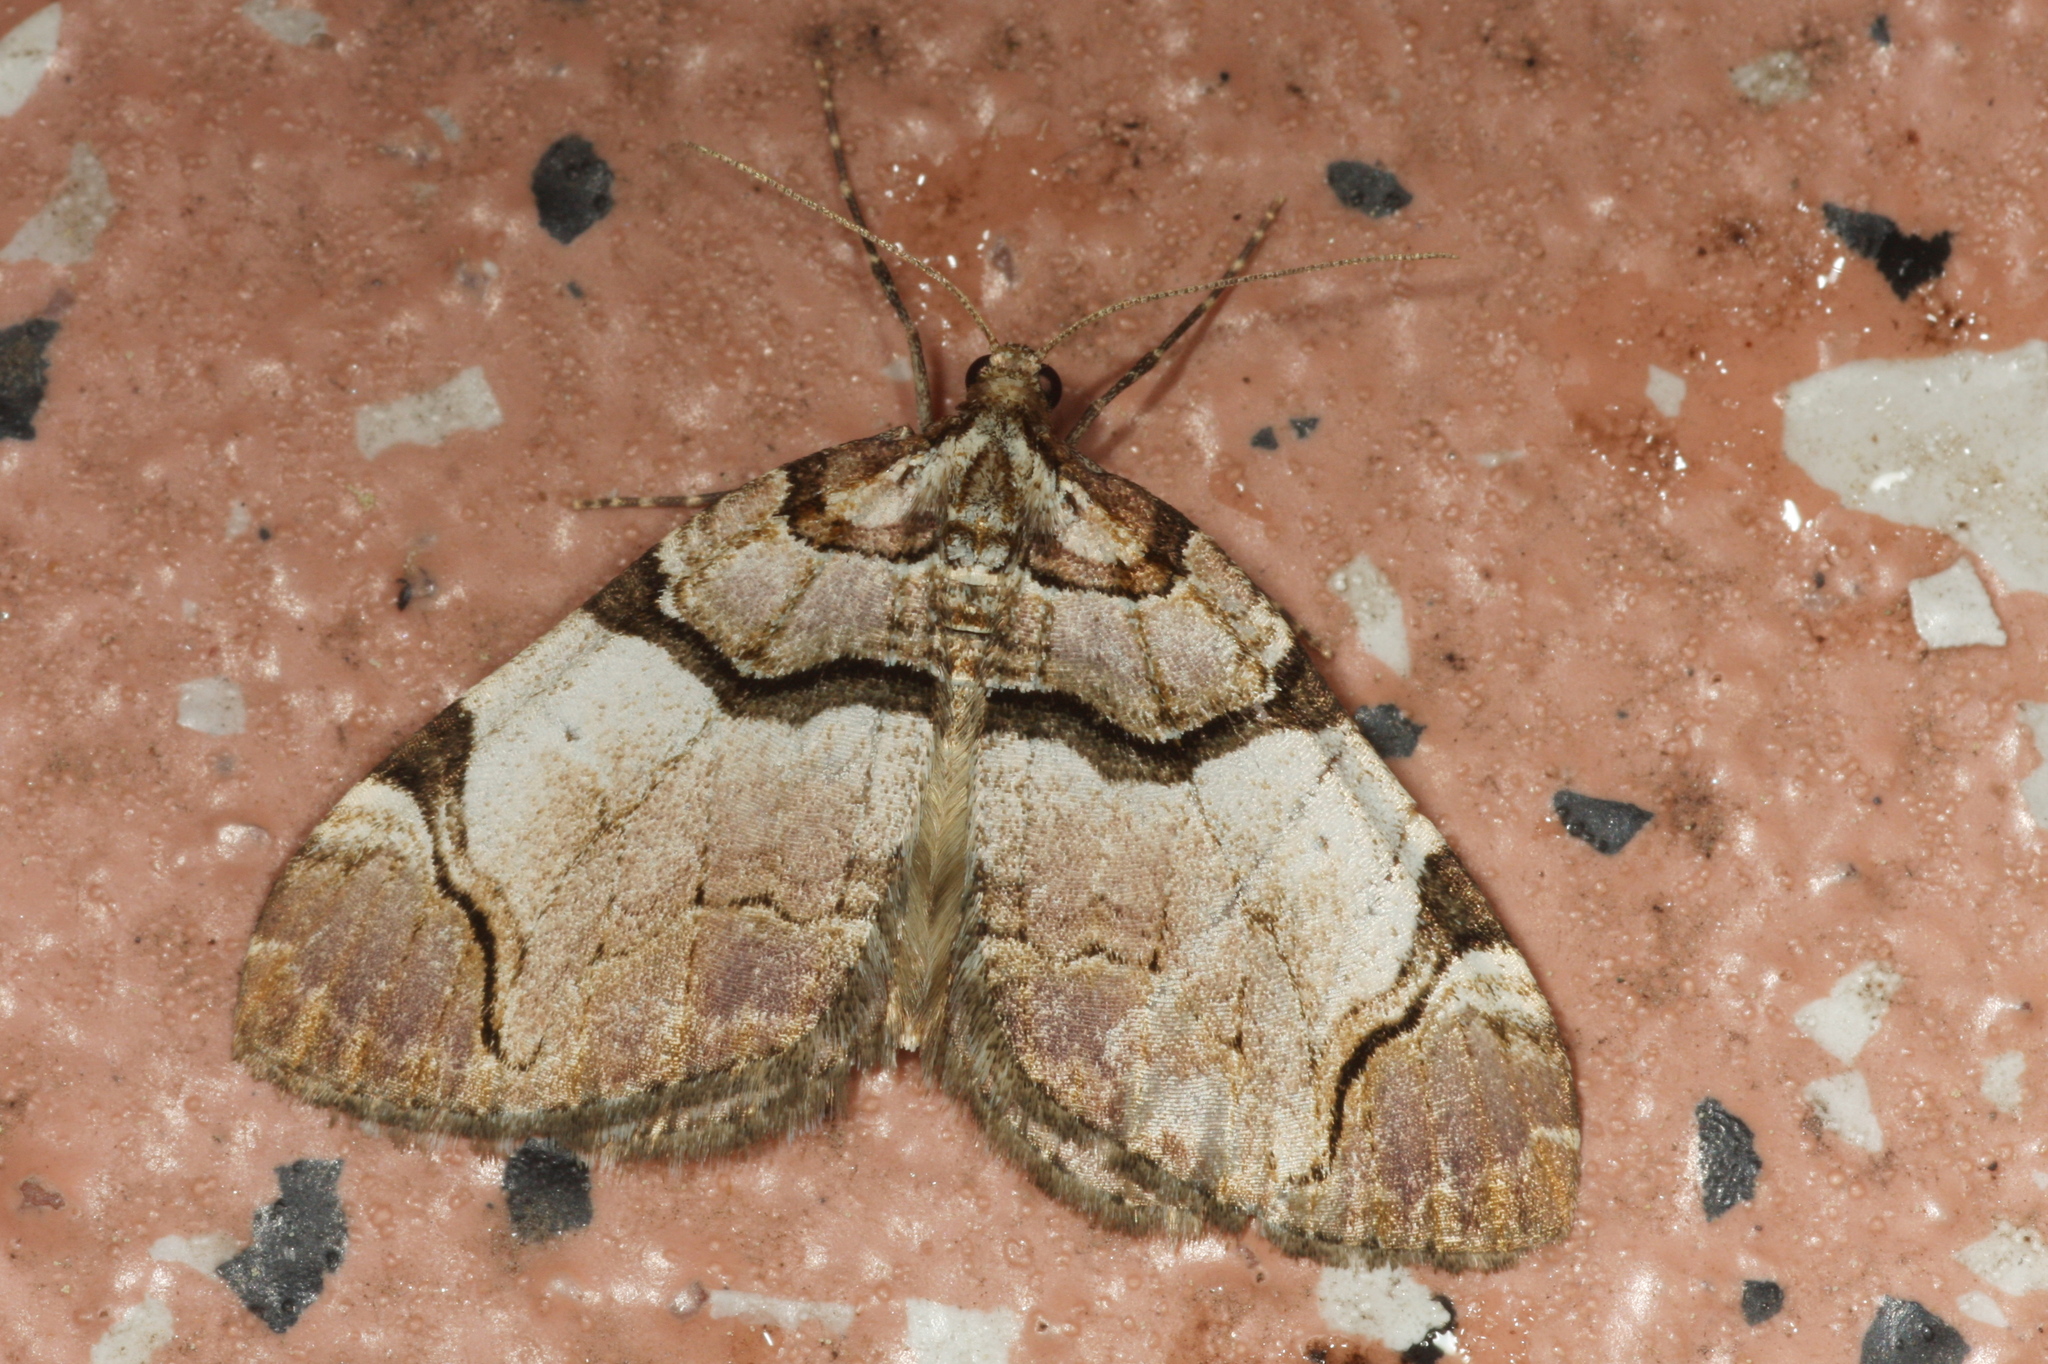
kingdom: Animalia
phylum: Arthropoda
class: Insecta
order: Lepidoptera
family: Geometridae
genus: Anticlea
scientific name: Anticlea derivata
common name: Streamer
